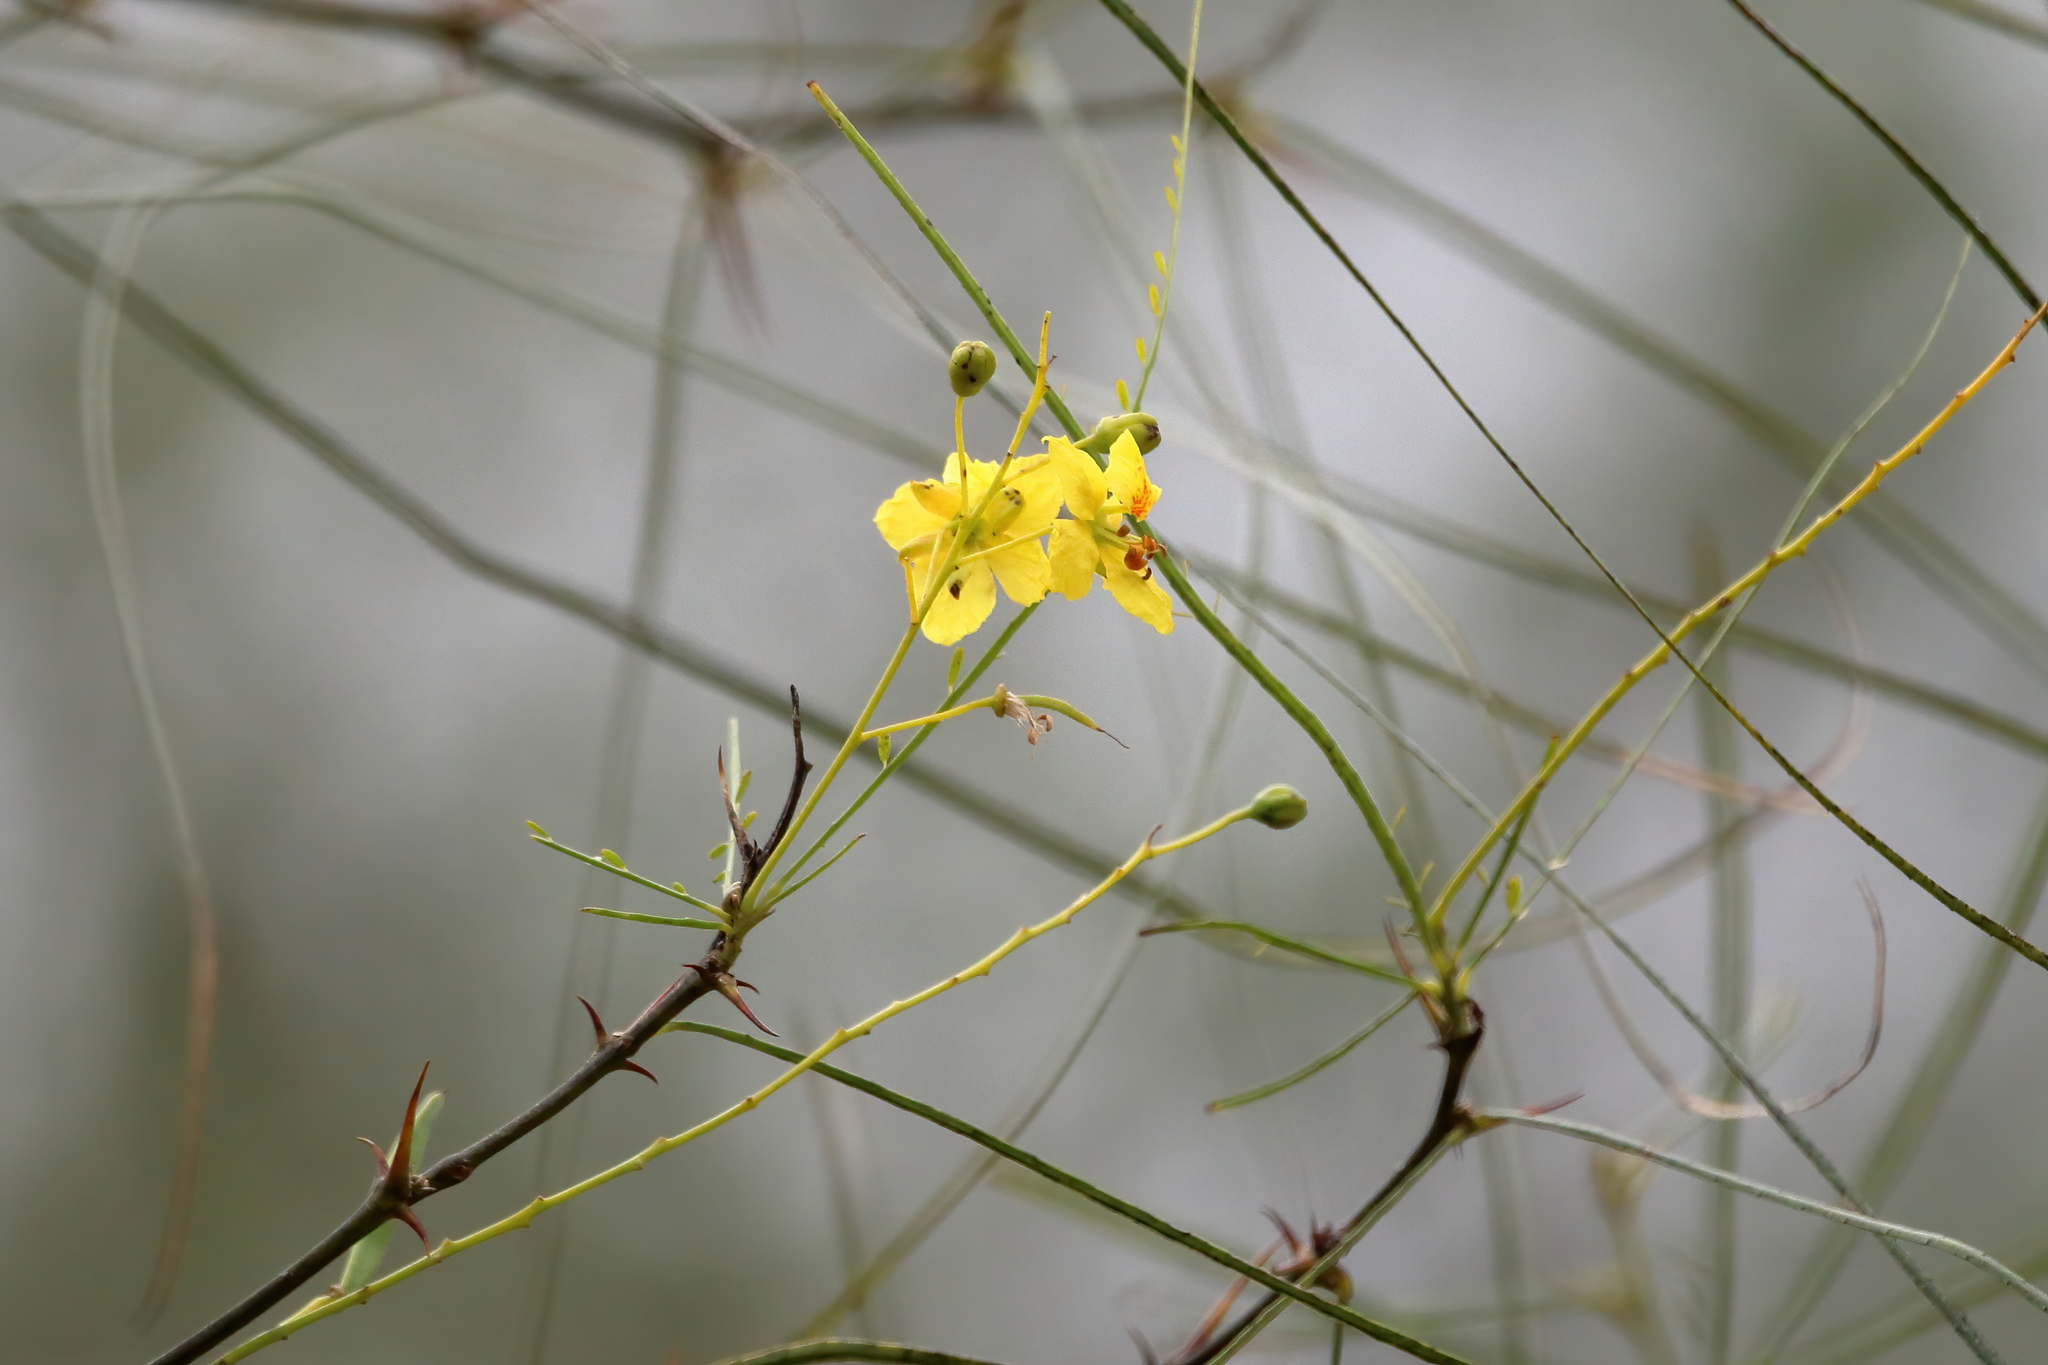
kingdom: Plantae
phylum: Tracheophyta
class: Magnoliopsida
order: Fabales
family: Fabaceae
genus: Parkinsonia
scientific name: Parkinsonia aculeata
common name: Jerusalem thorn
